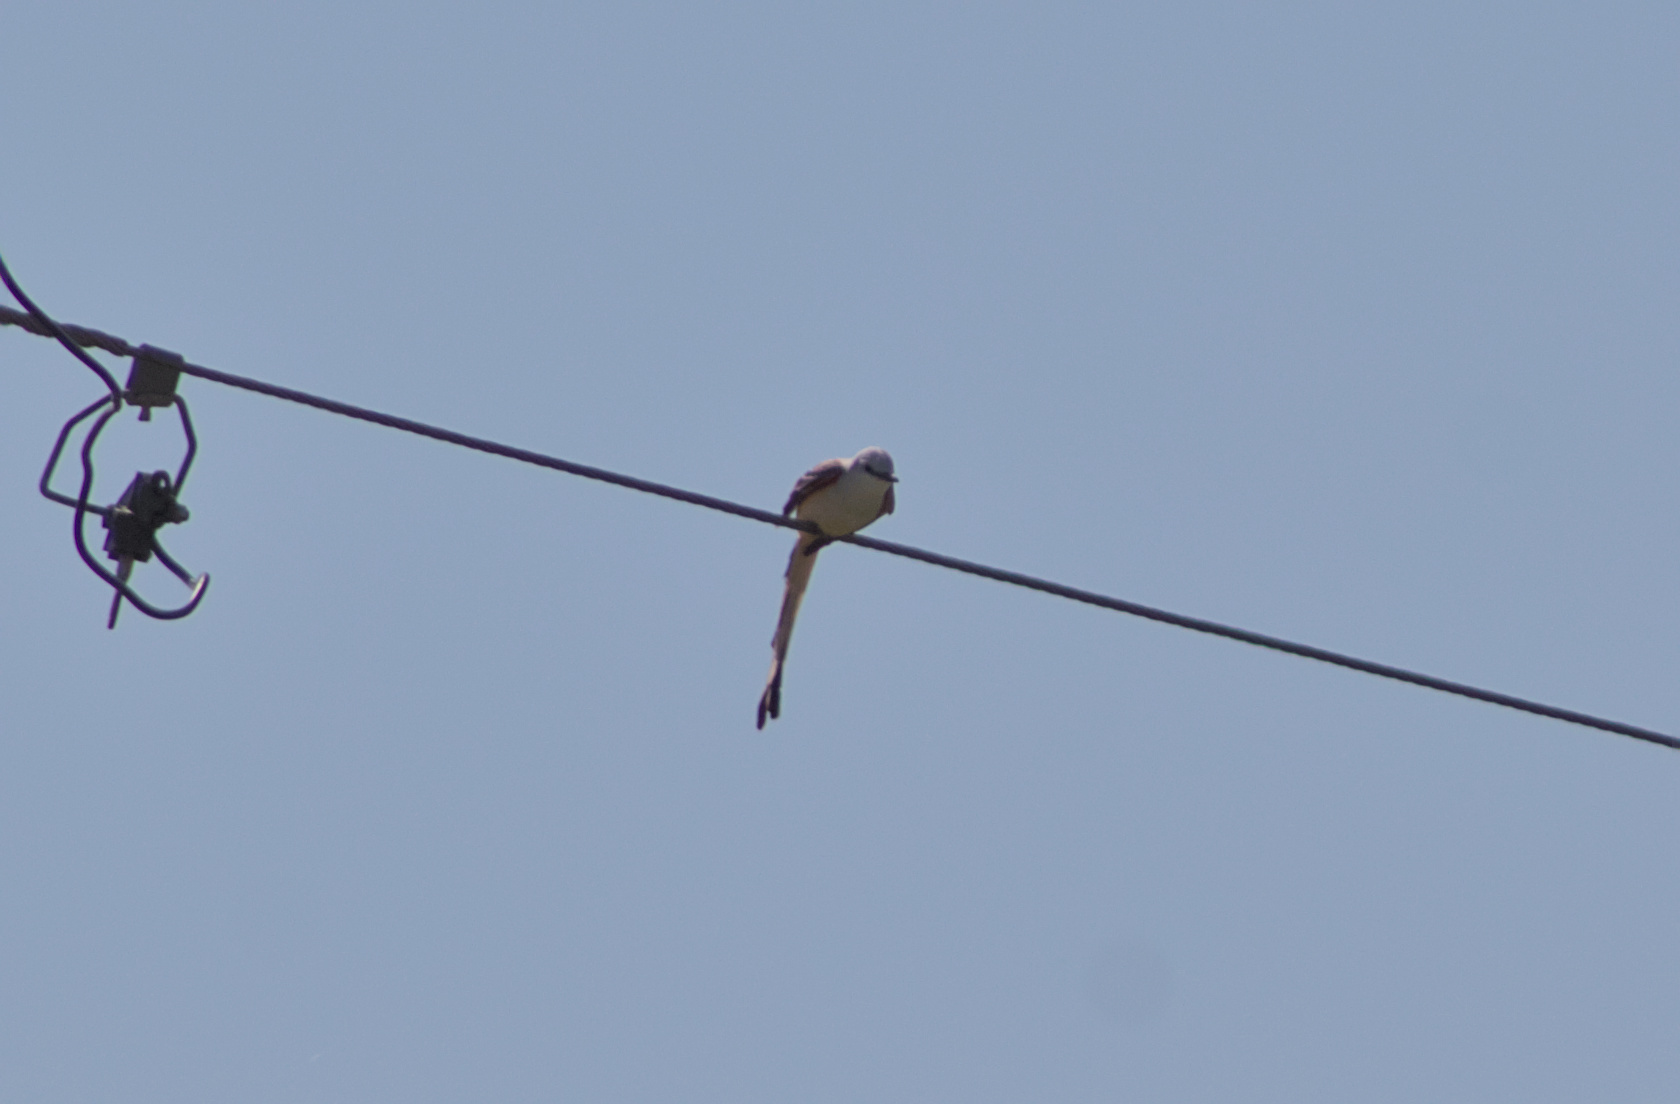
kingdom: Animalia
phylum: Chordata
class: Aves
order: Passeriformes
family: Tyrannidae
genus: Tyrannus
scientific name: Tyrannus forficatus
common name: Scissor-tailed flycatcher
